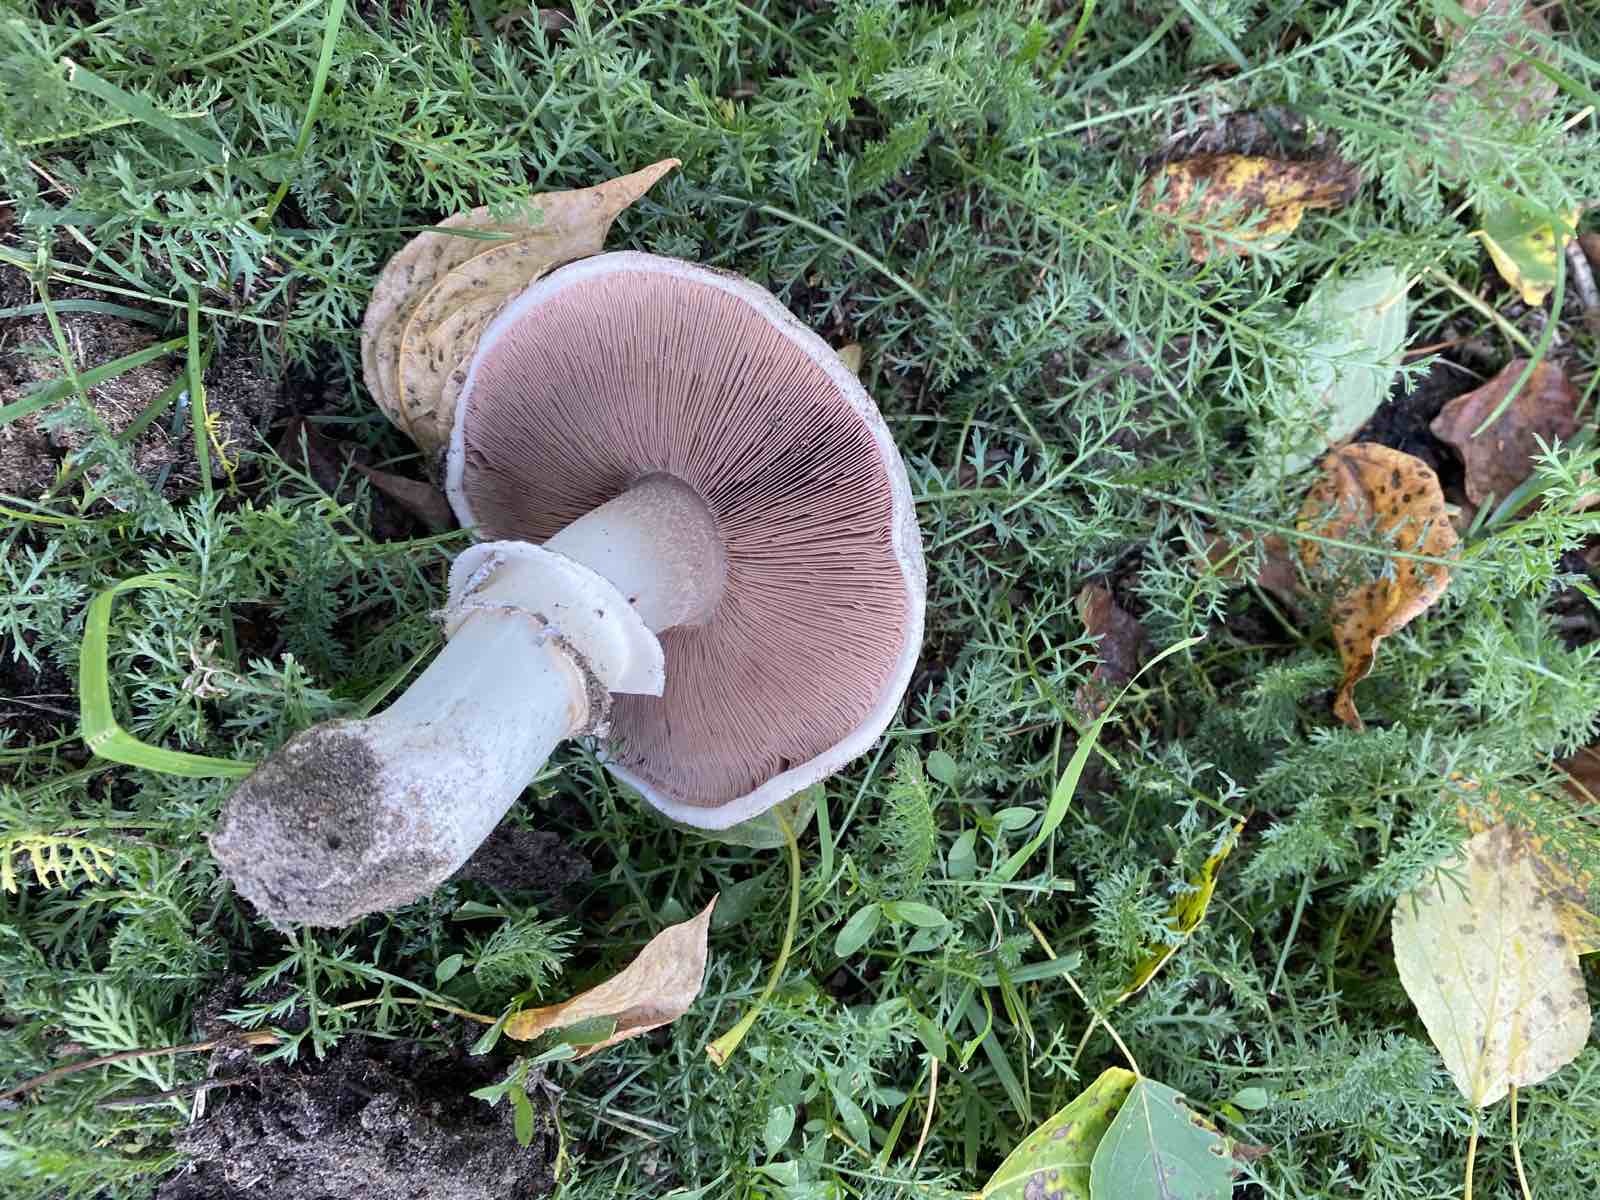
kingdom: Fungi
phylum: Basidiomycota
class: Agaricomycetes
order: Agaricales
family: Agaricaceae
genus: Agaricus
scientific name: Agaricus campestris
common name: Field mushroom
